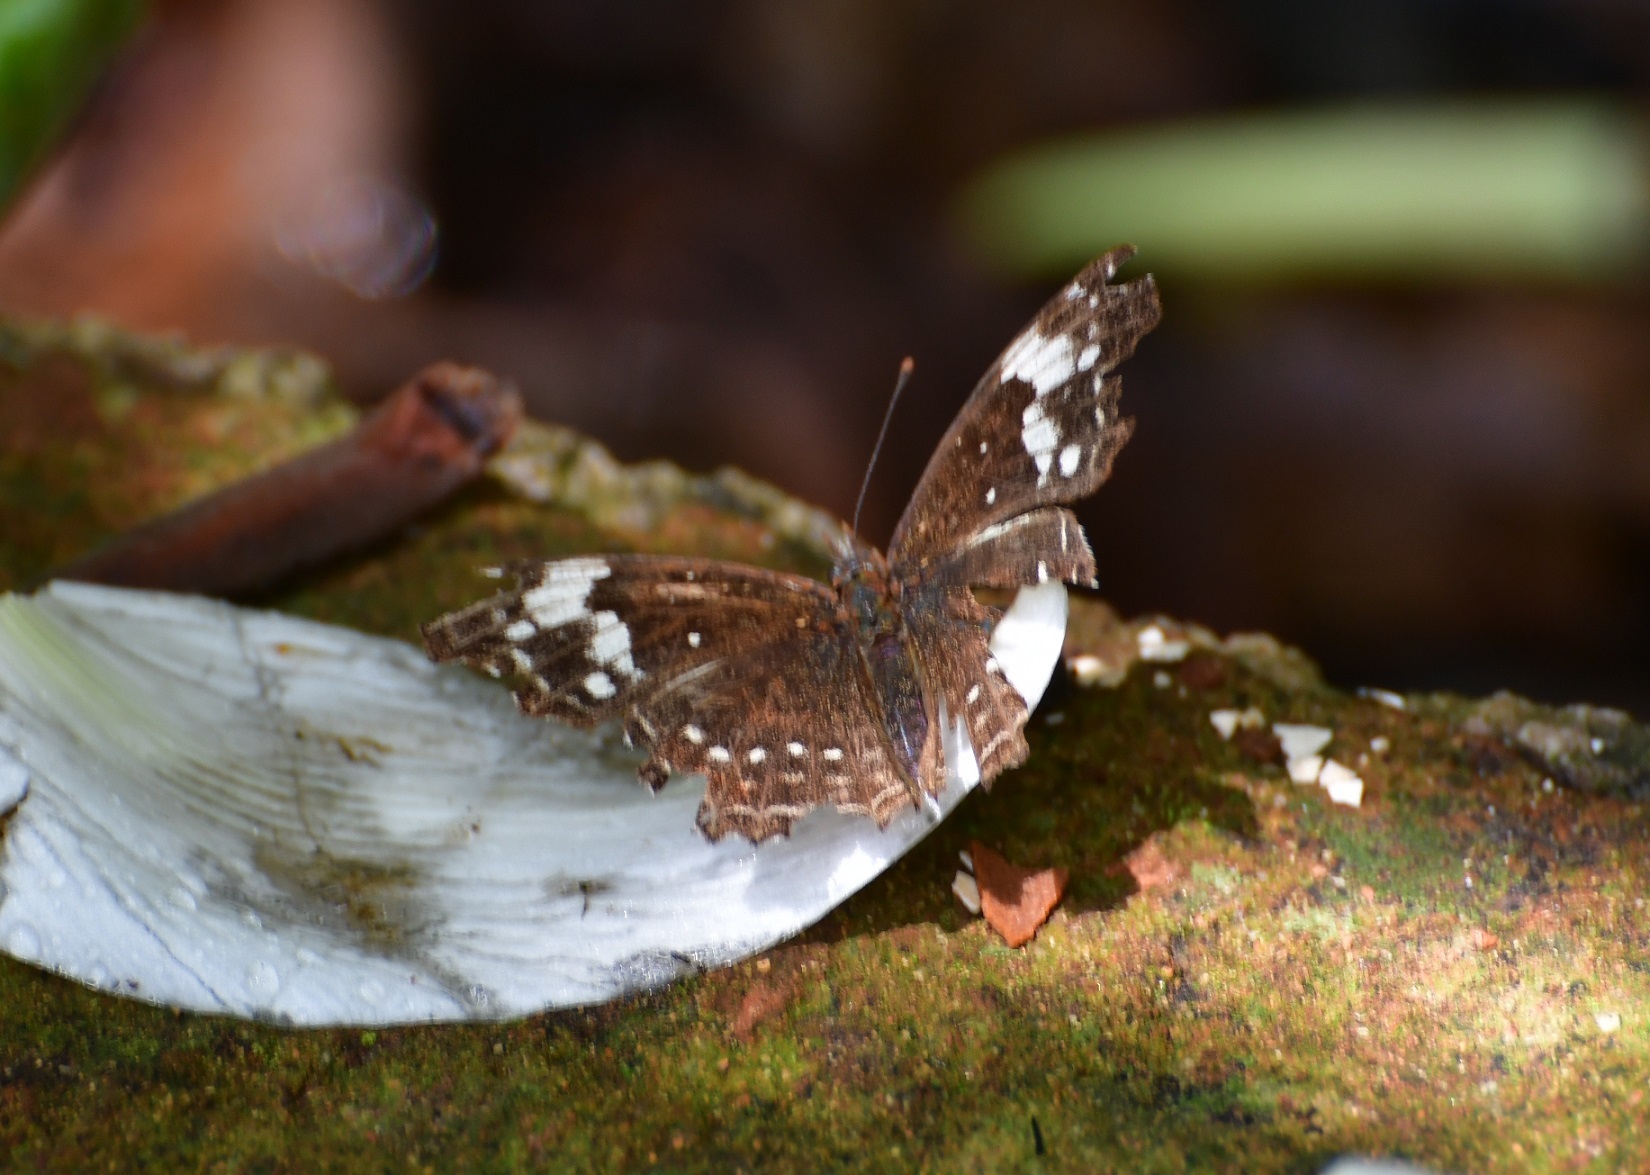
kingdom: Animalia
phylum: Arthropoda
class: Insecta
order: Lepidoptera
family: Nymphalidae
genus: Anthanassa
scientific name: Anthanassa sitalces
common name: Montane crescent
